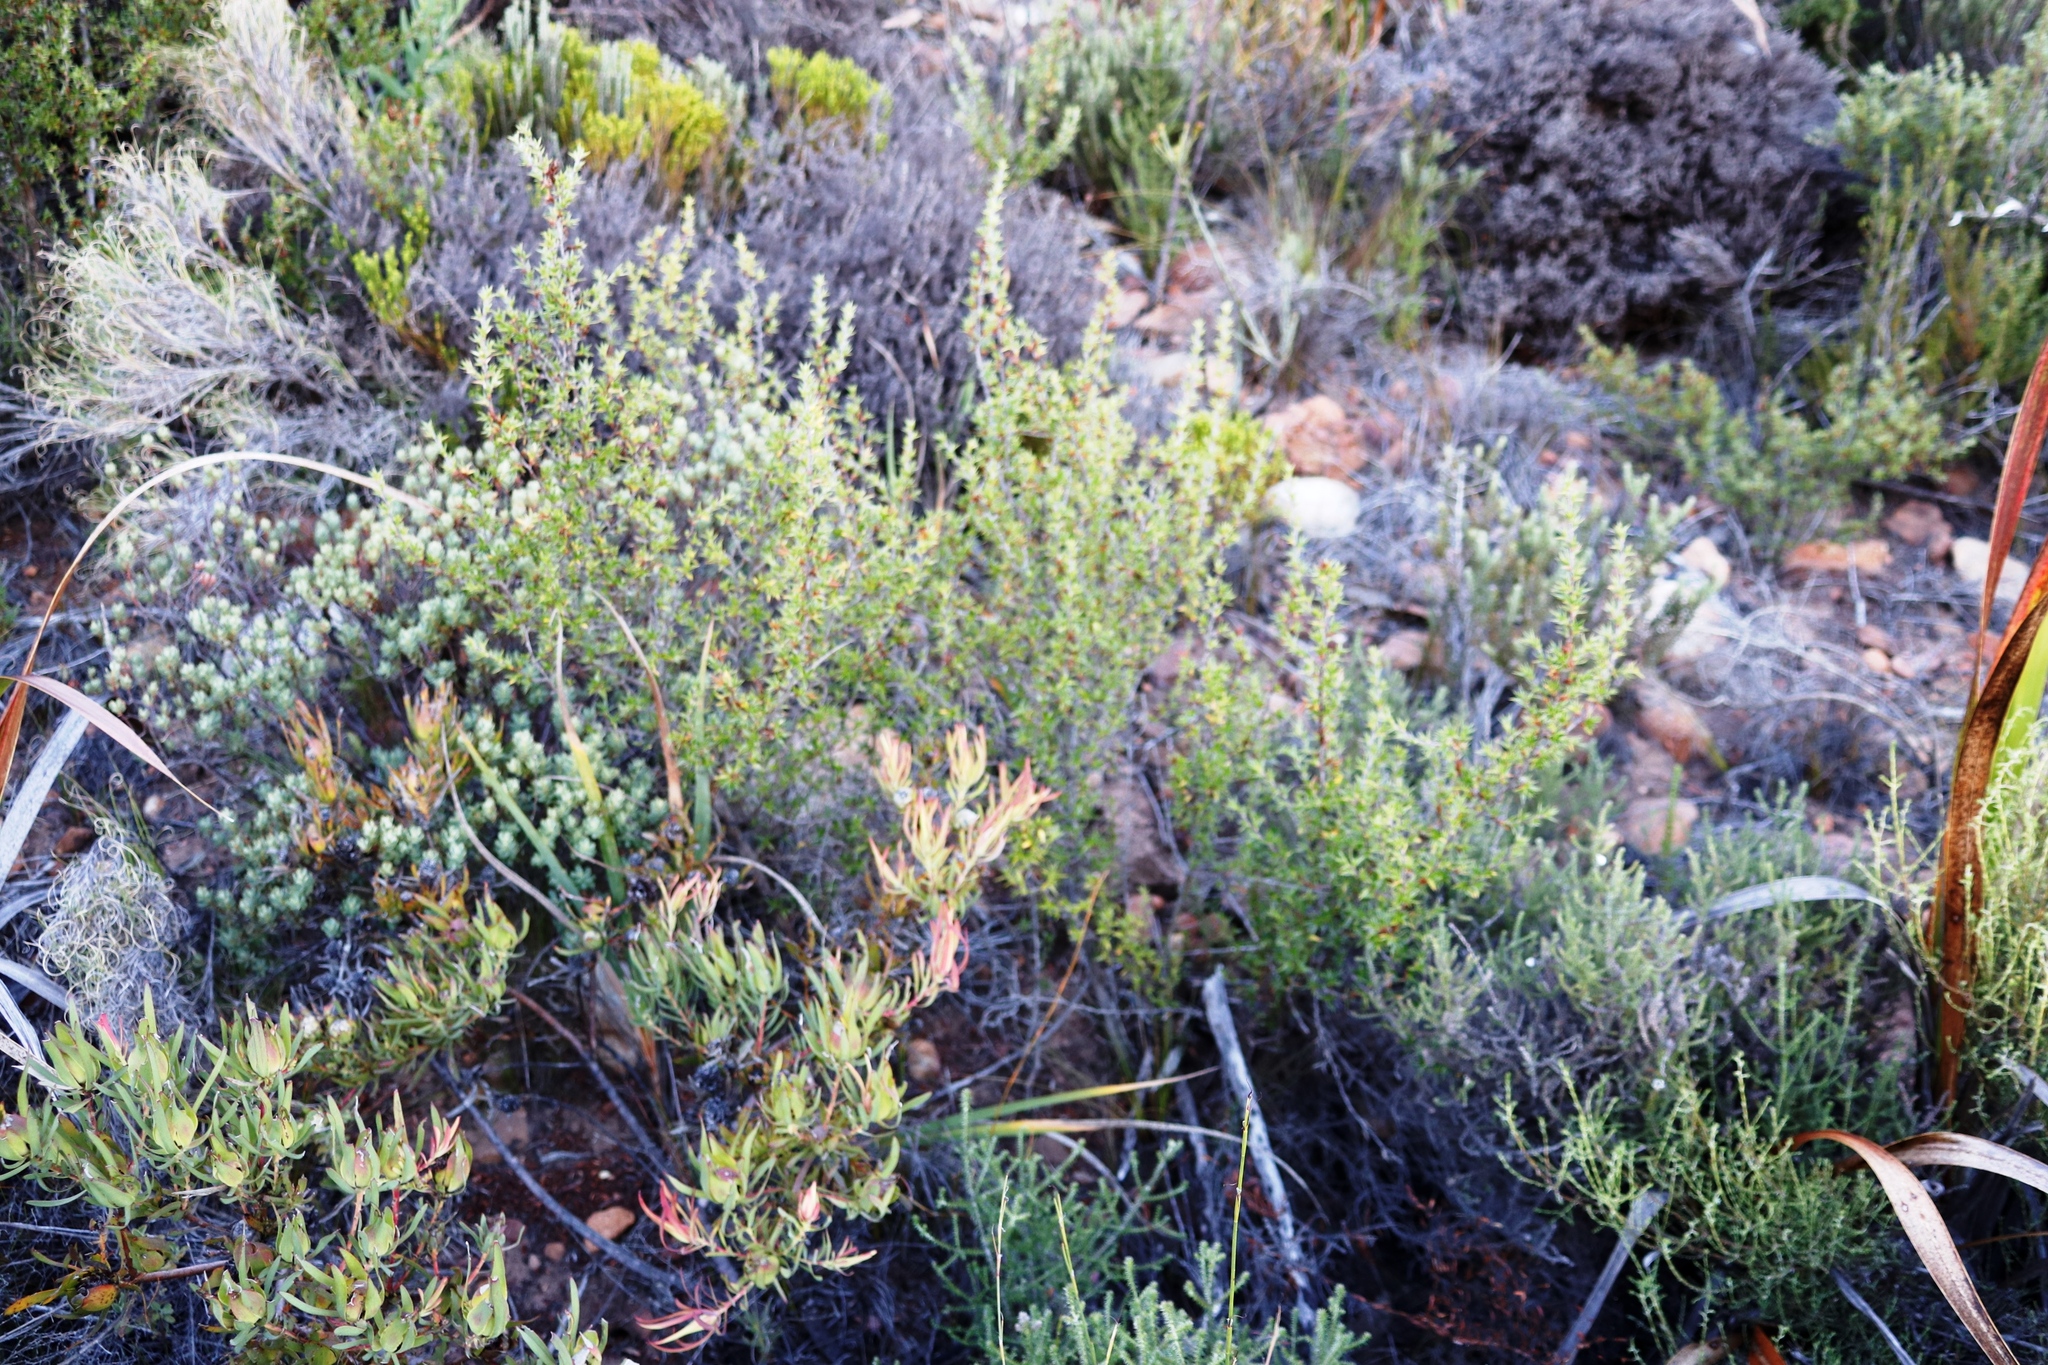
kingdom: Plantae
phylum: Tracheophyta
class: Magnoliopsida
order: Rosales
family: Rosaceae
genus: Cliffortia
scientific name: Cliffortia ruscifolia
